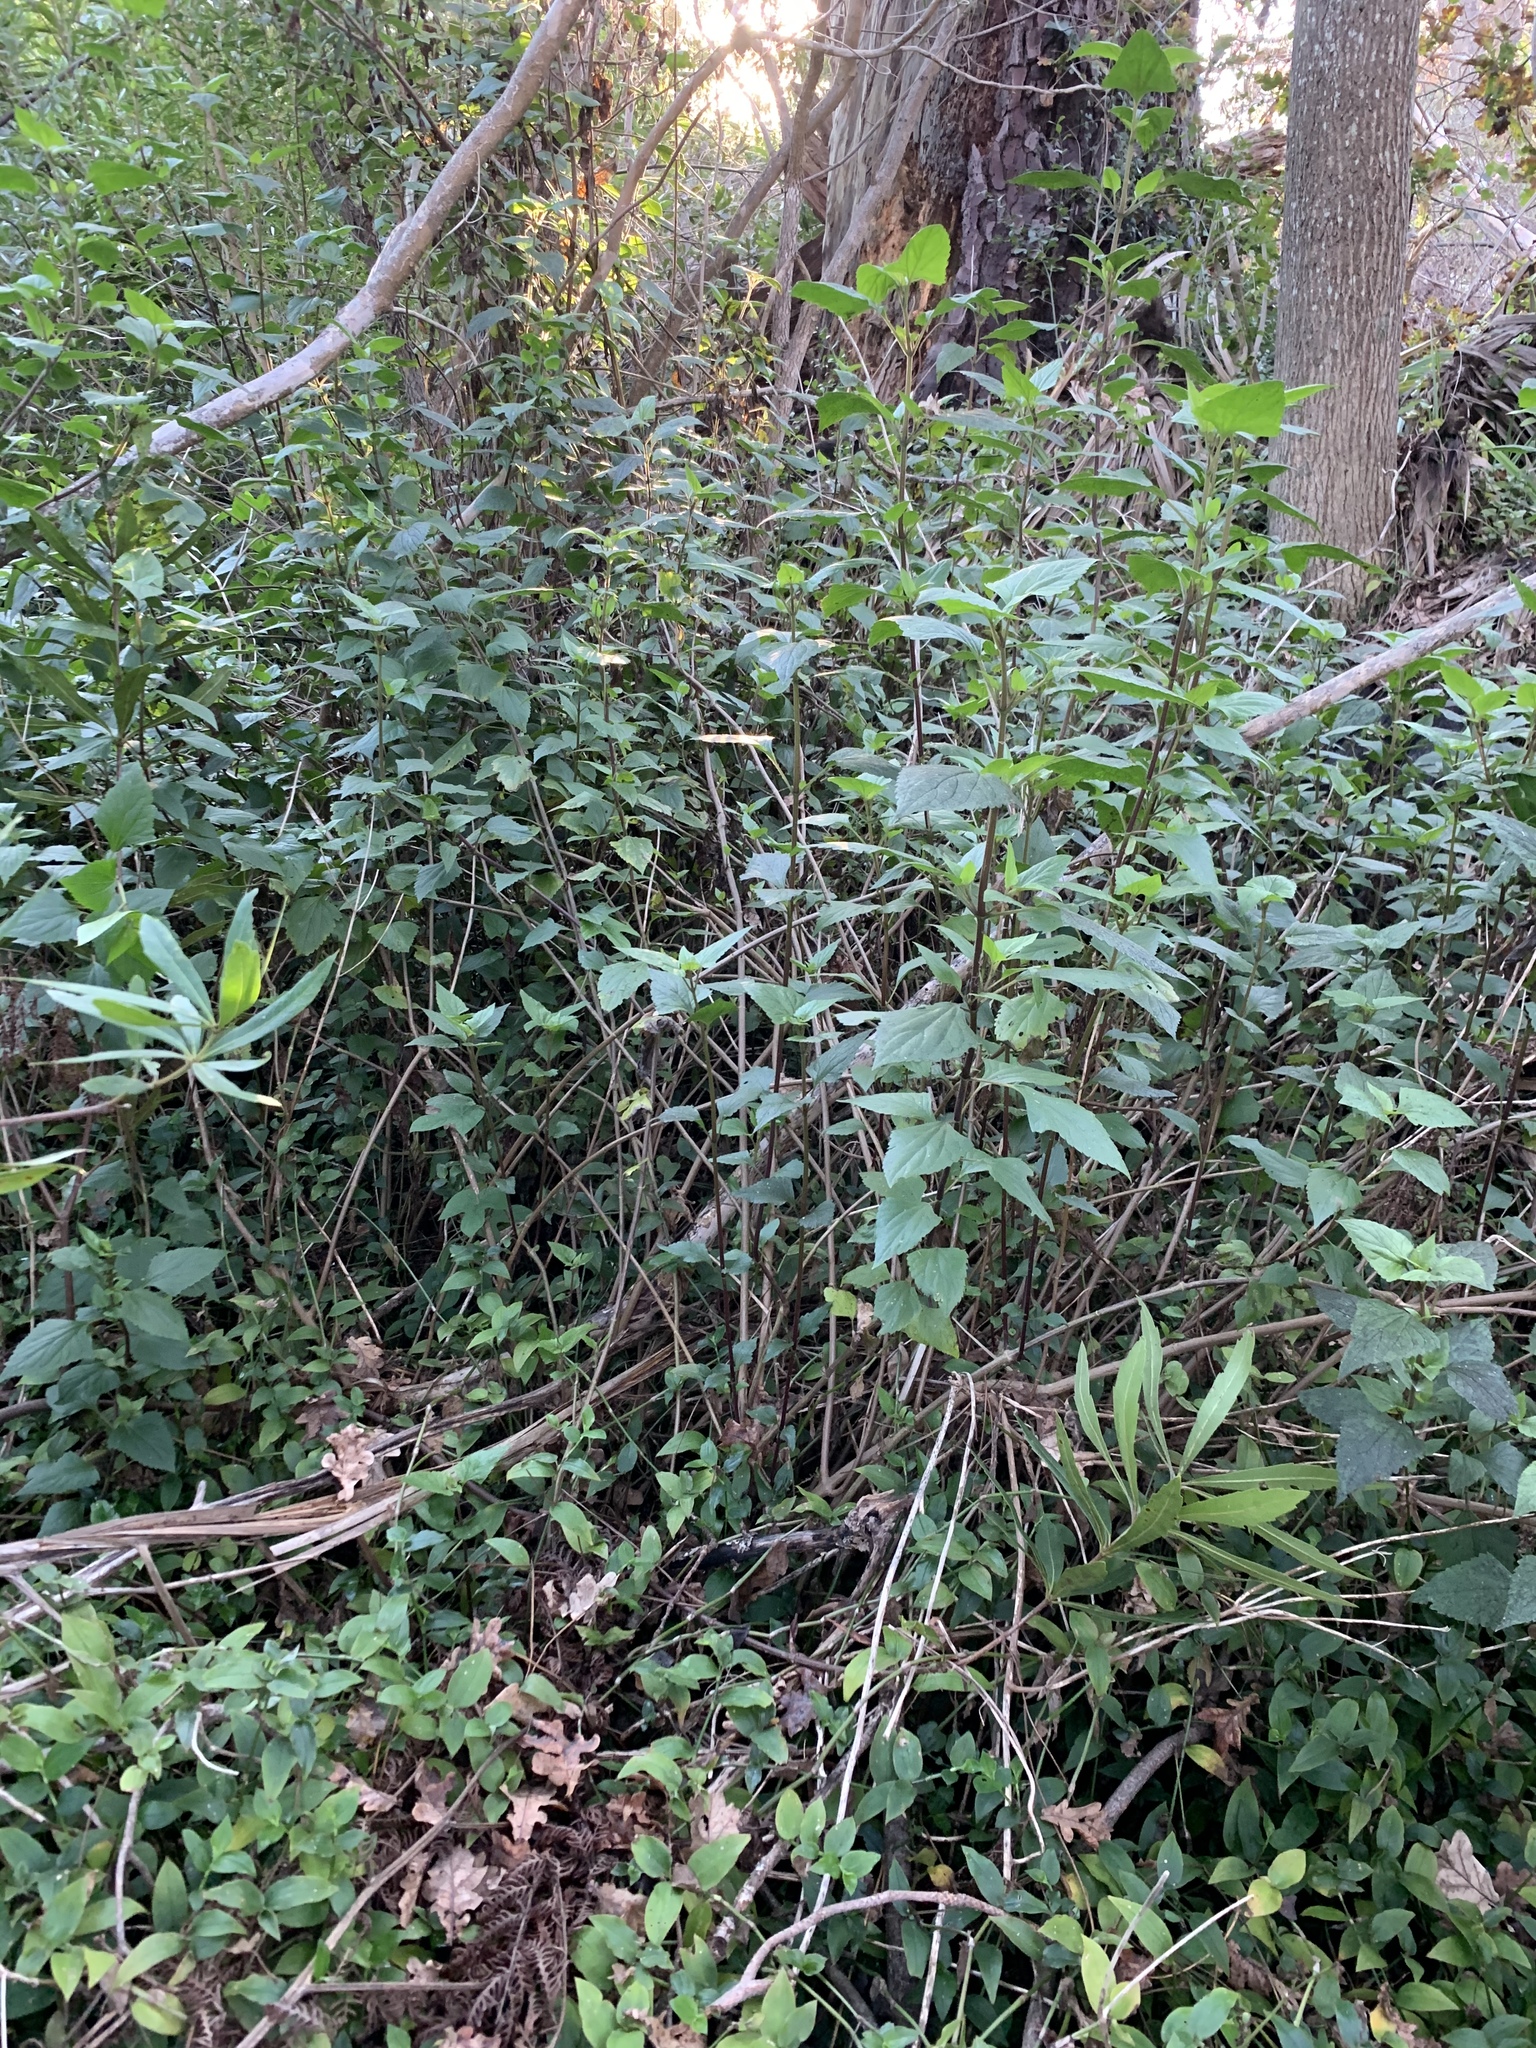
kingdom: Plantae
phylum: Tracheophyta
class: Magnoliopsida
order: Asterales
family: Asteraceae
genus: Ageratina
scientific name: Ageratina adenophora
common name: Sticky snakeroot
